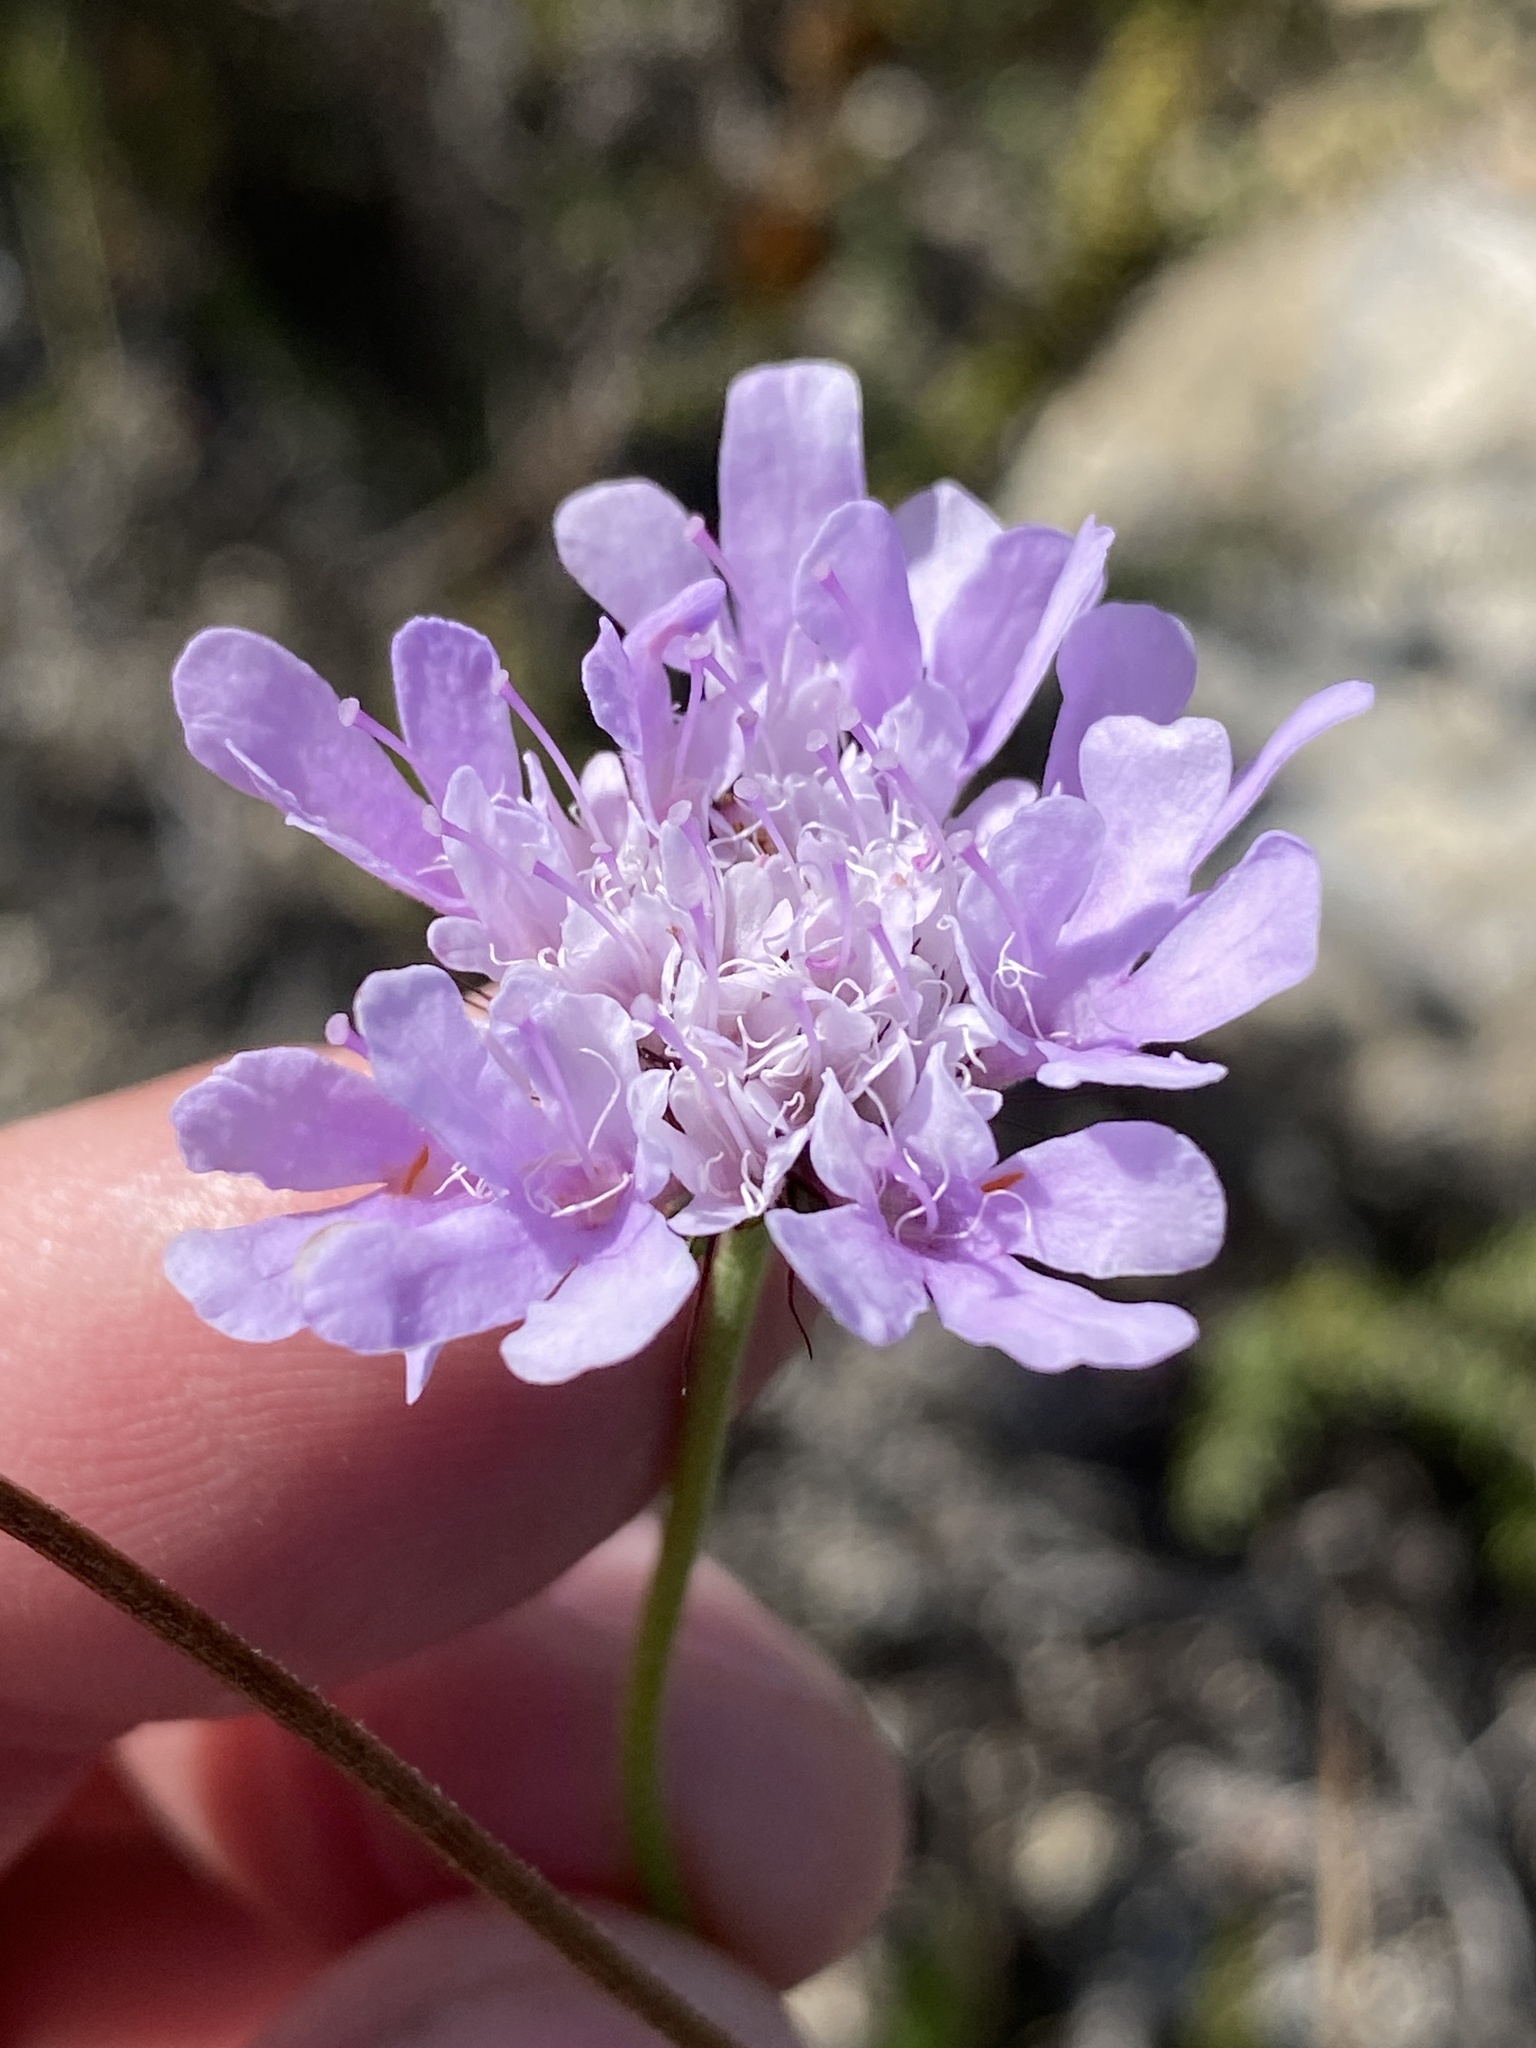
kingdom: Plantae
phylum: Tracheophyta
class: Magnoliopsida
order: Dipsacales
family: Caprifoliaceae
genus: Scabiosa
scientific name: Scabiosa columbaria
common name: Small scabious
